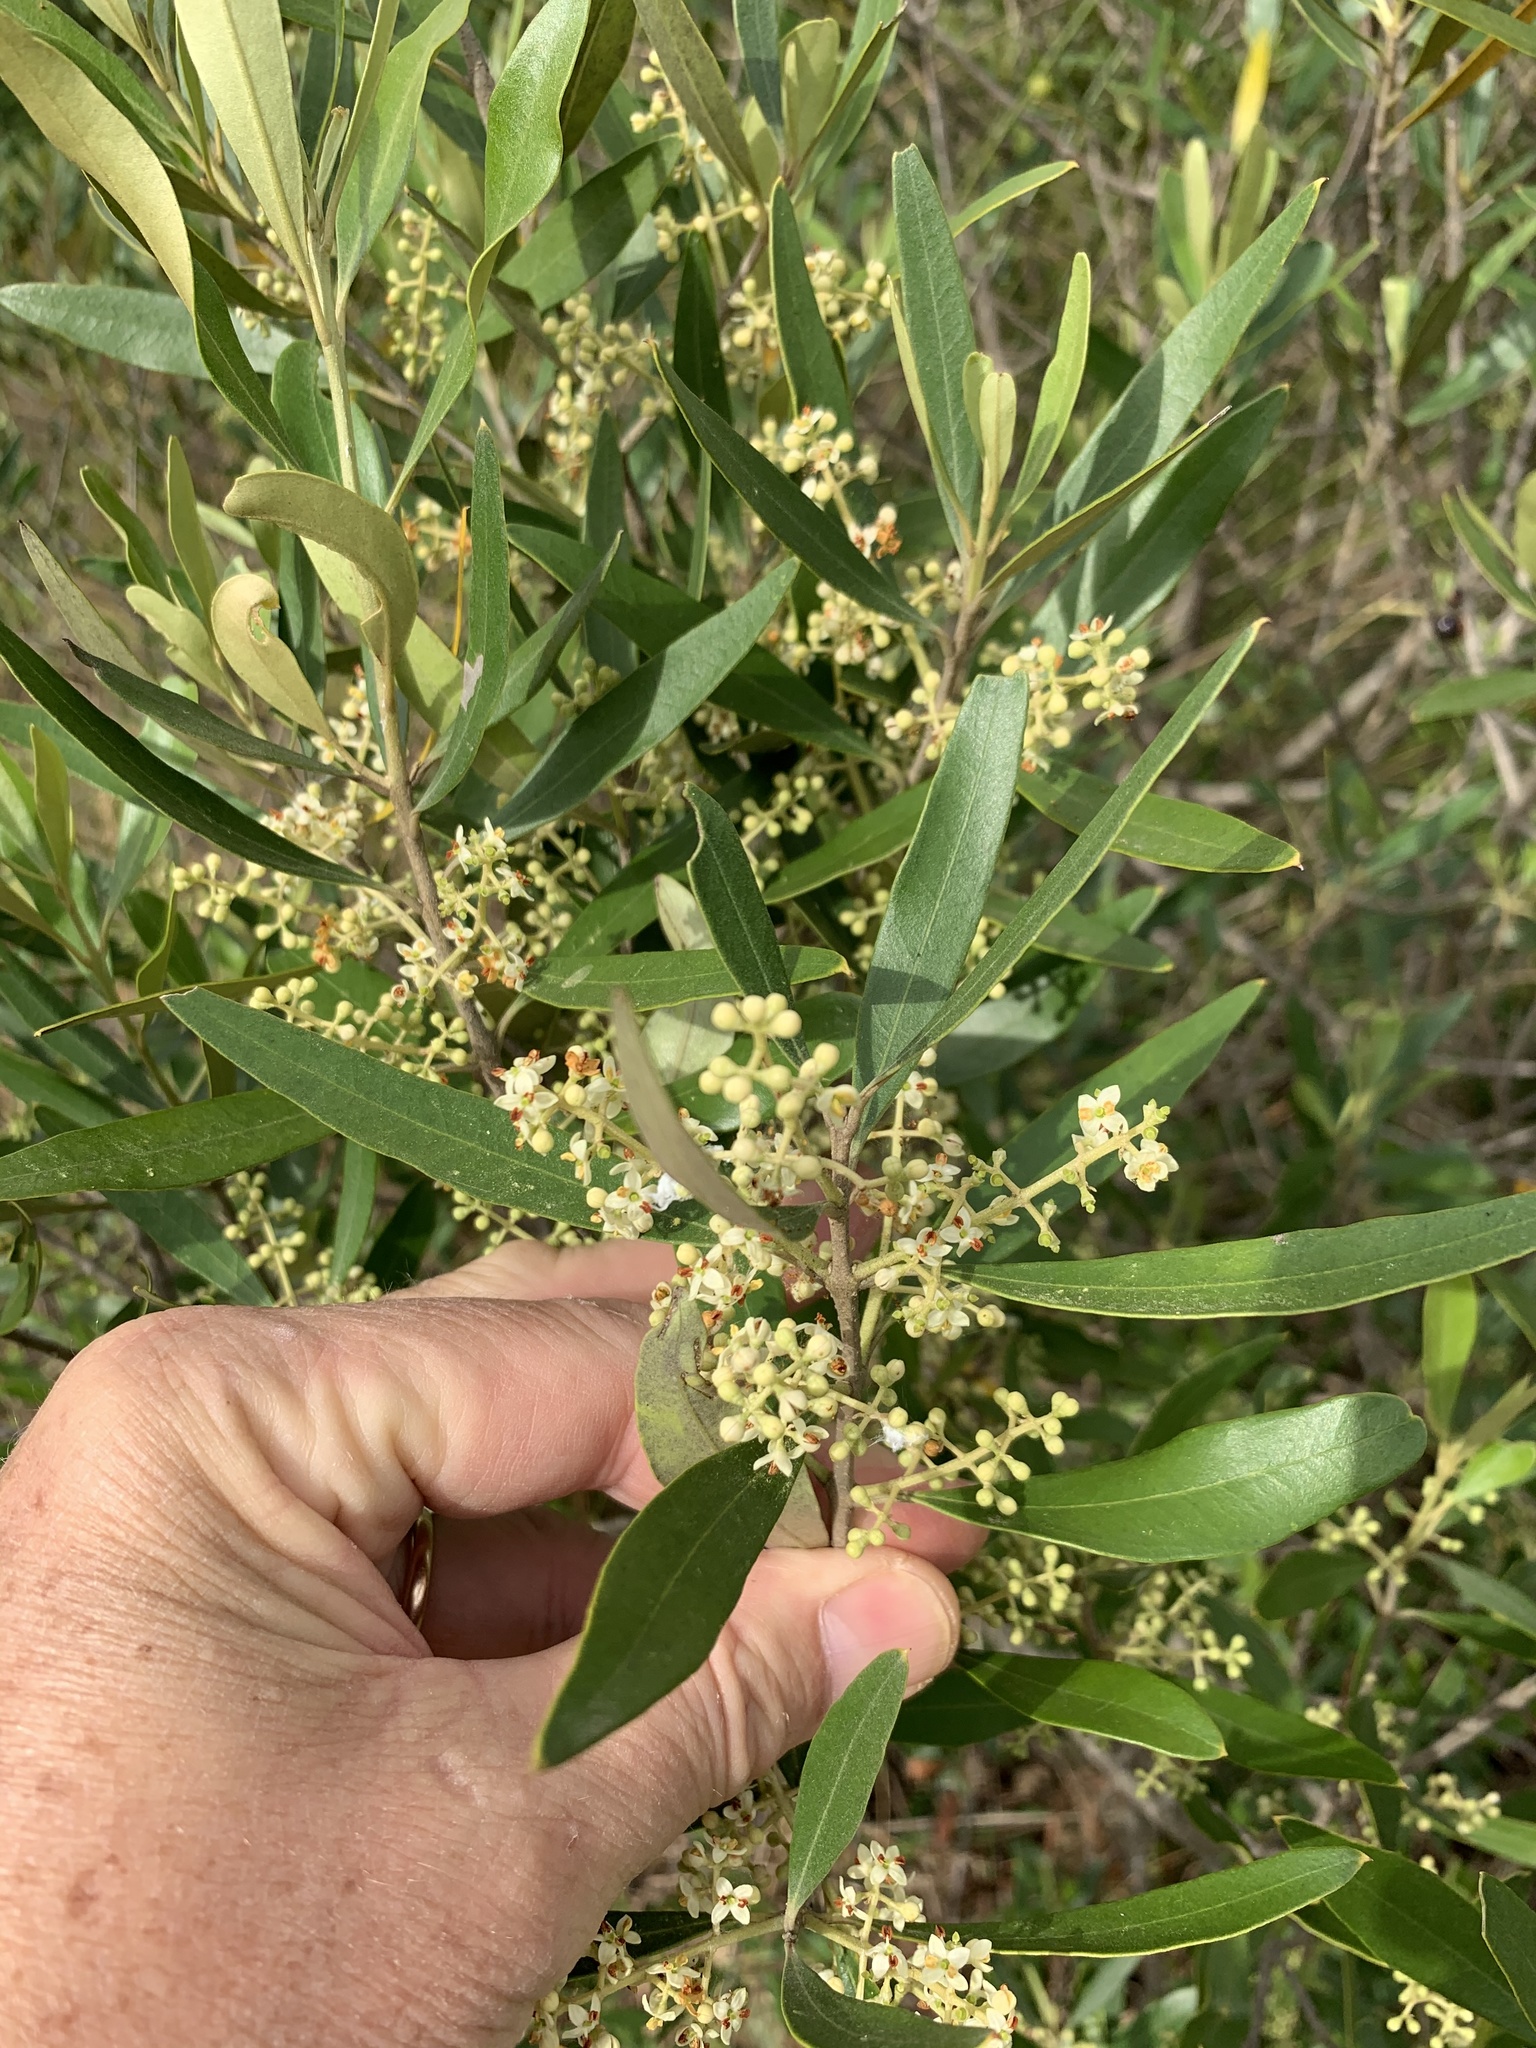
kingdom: Plantae
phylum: Tracheophyta
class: Magnoliopsida
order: Lamiales
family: Oleaceae
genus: Olea
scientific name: Olea europaea
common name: Olive
